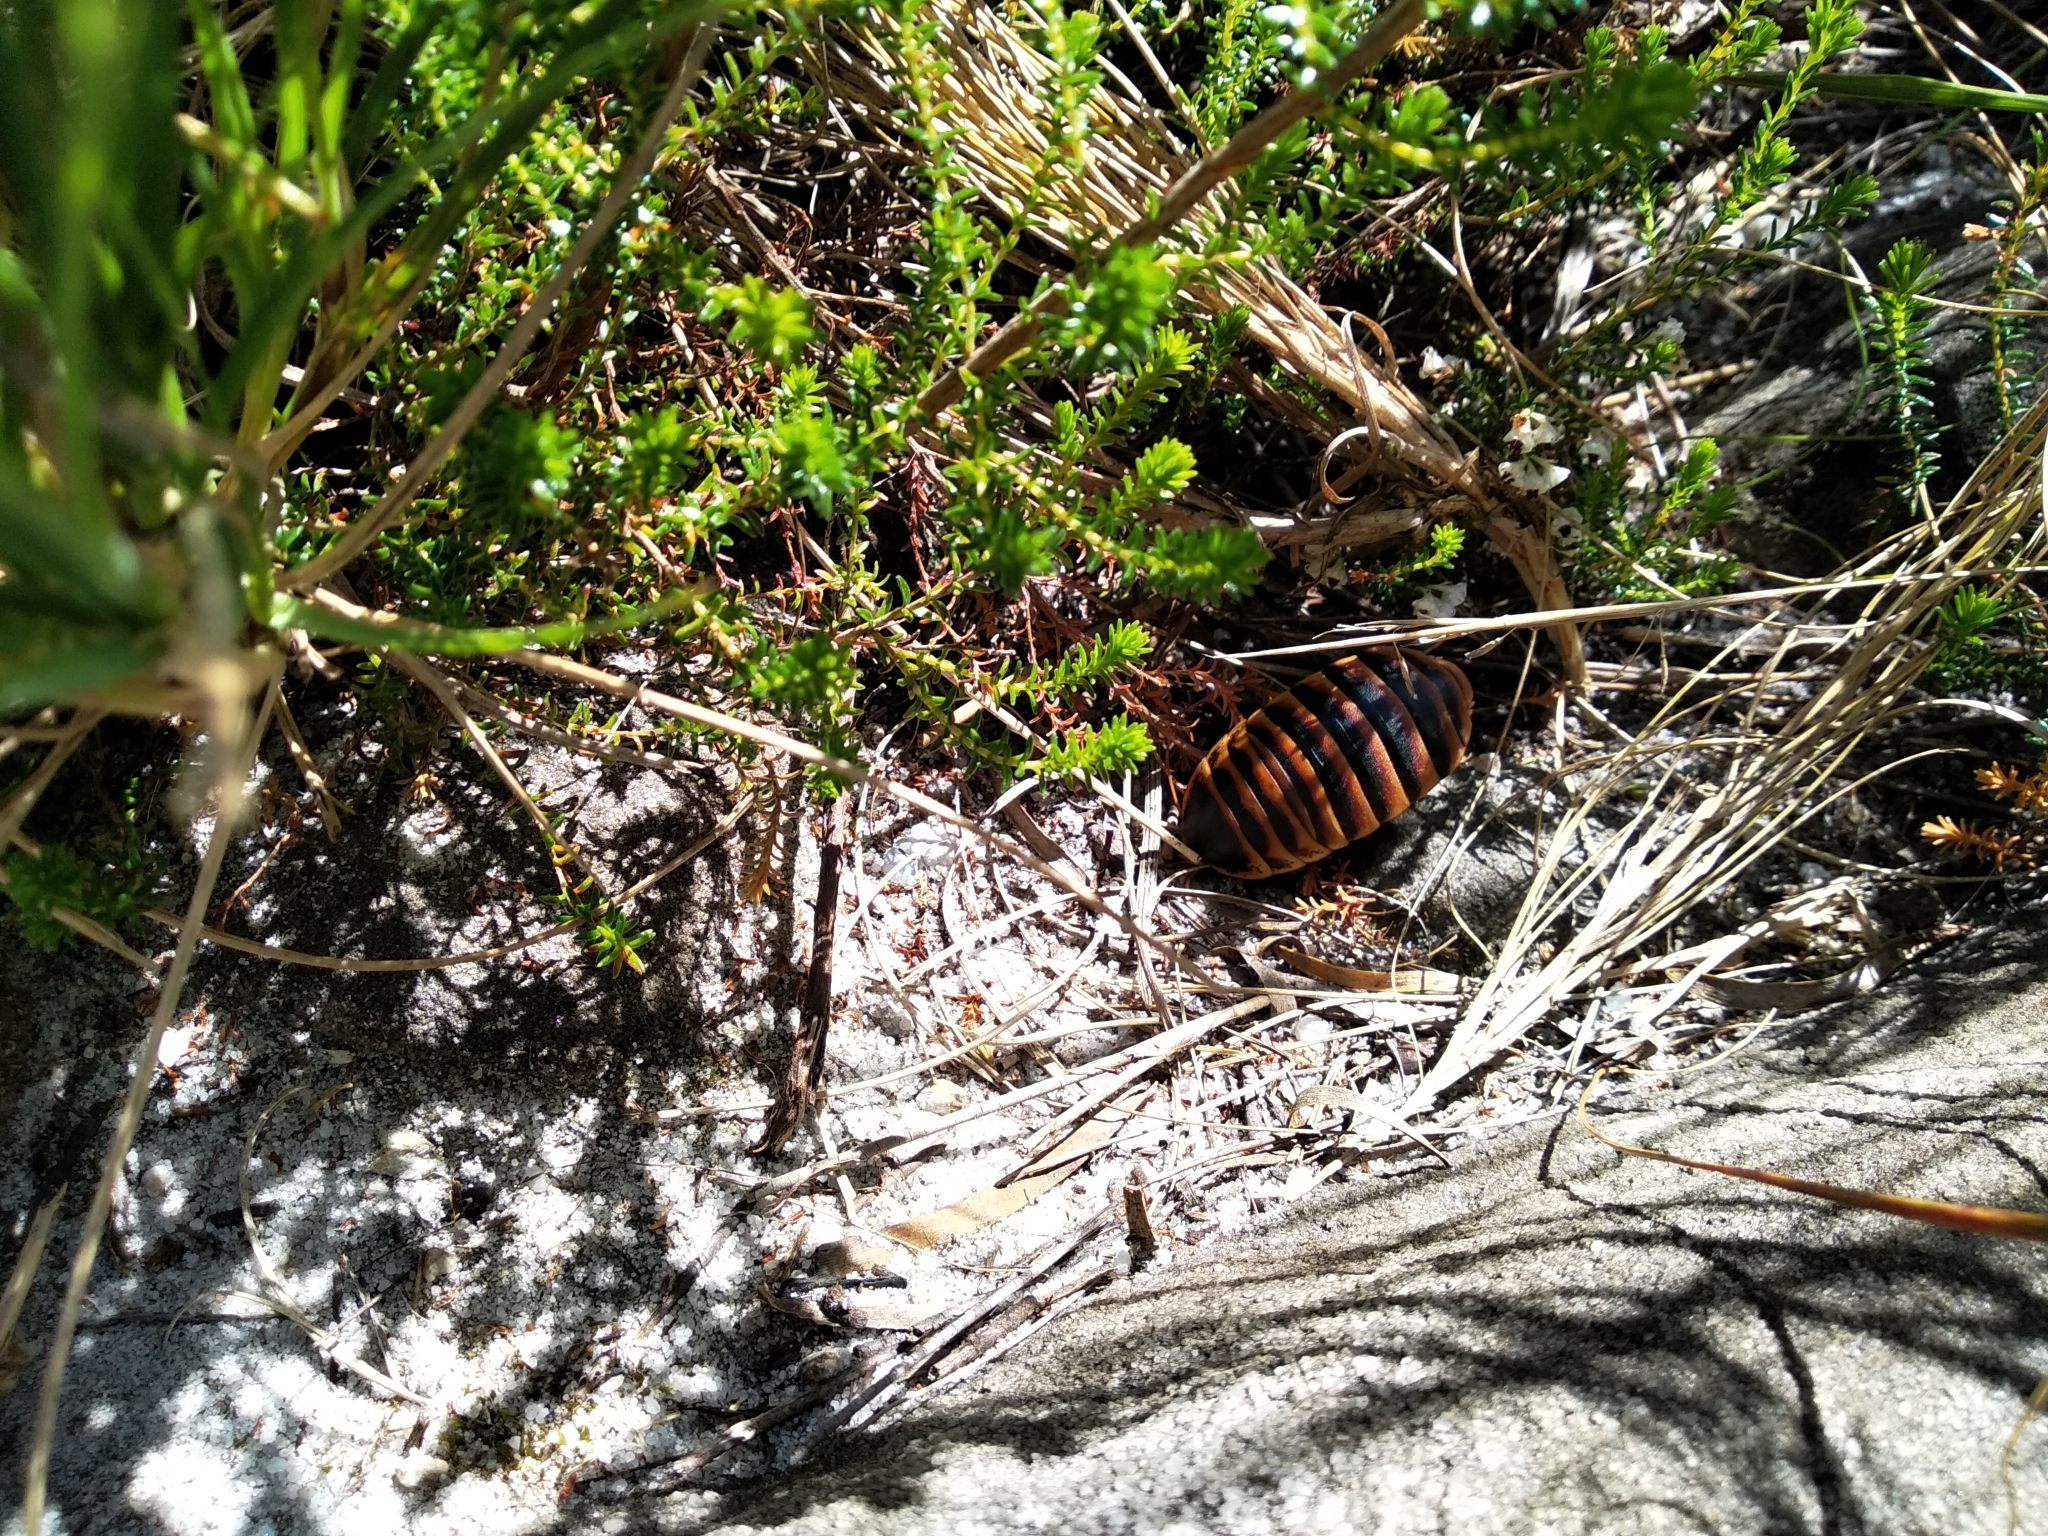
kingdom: Animalia
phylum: Arthropoda
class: Insecta
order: Blattodea
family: Blaberidae
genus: Aptera
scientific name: Aptera fusca
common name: Cape mountain cockroach
